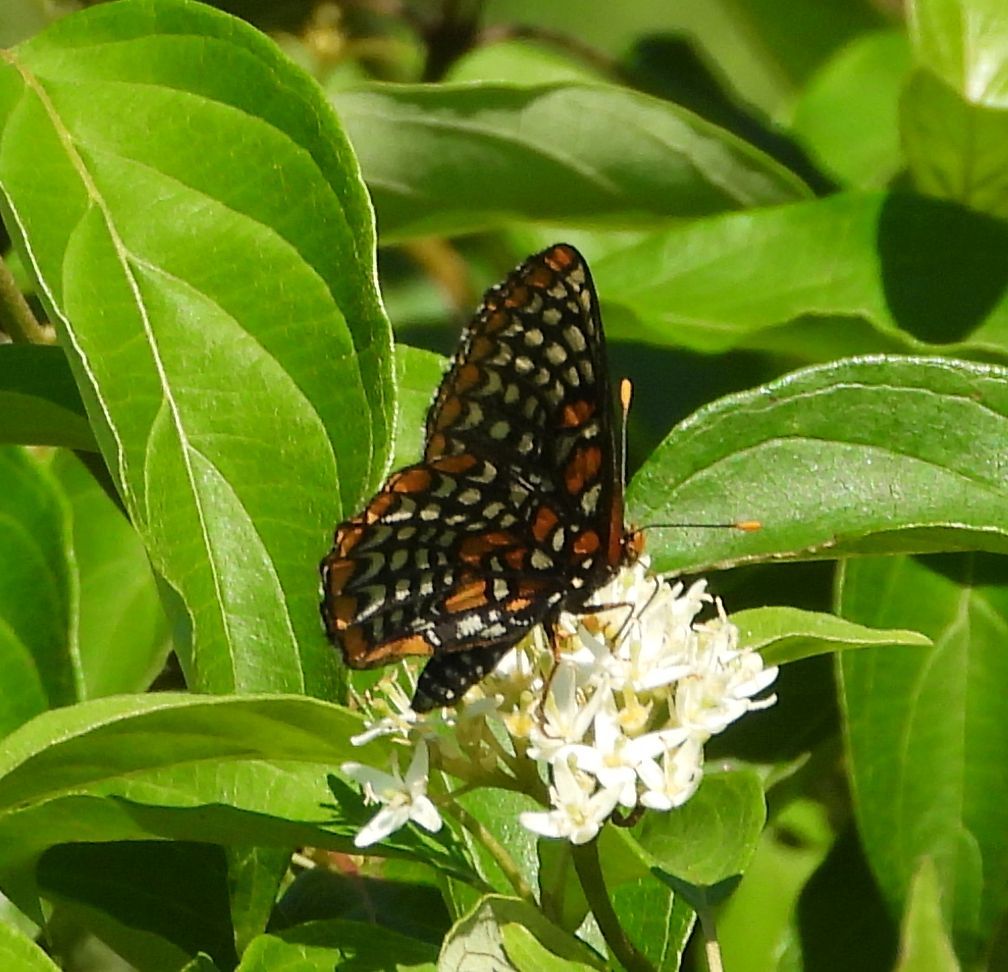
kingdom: Animalia
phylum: Arthropoda
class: Insecta
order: Lepidoptera
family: Nymphalidae
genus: Euphydryas
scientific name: Euphydryas phaeton
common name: Baltimore checkerspot
